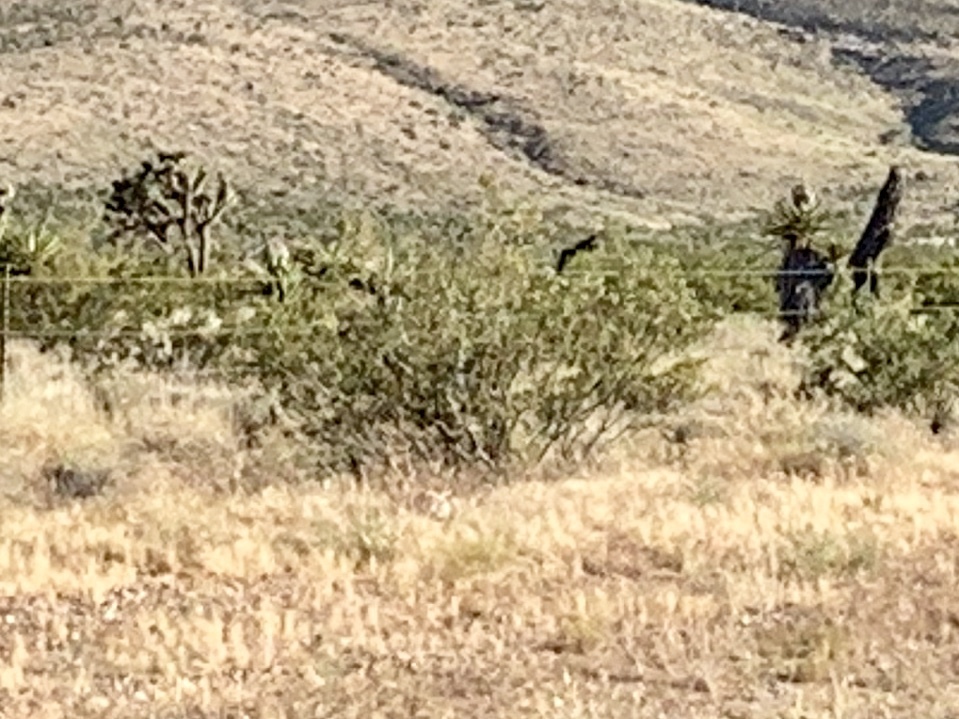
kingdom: Plantae
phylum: Tracheophyta
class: Magnoliopsida
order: Zygophyllales
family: Zygophyllaceae
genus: Larrea
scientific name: Larrea tridentata
